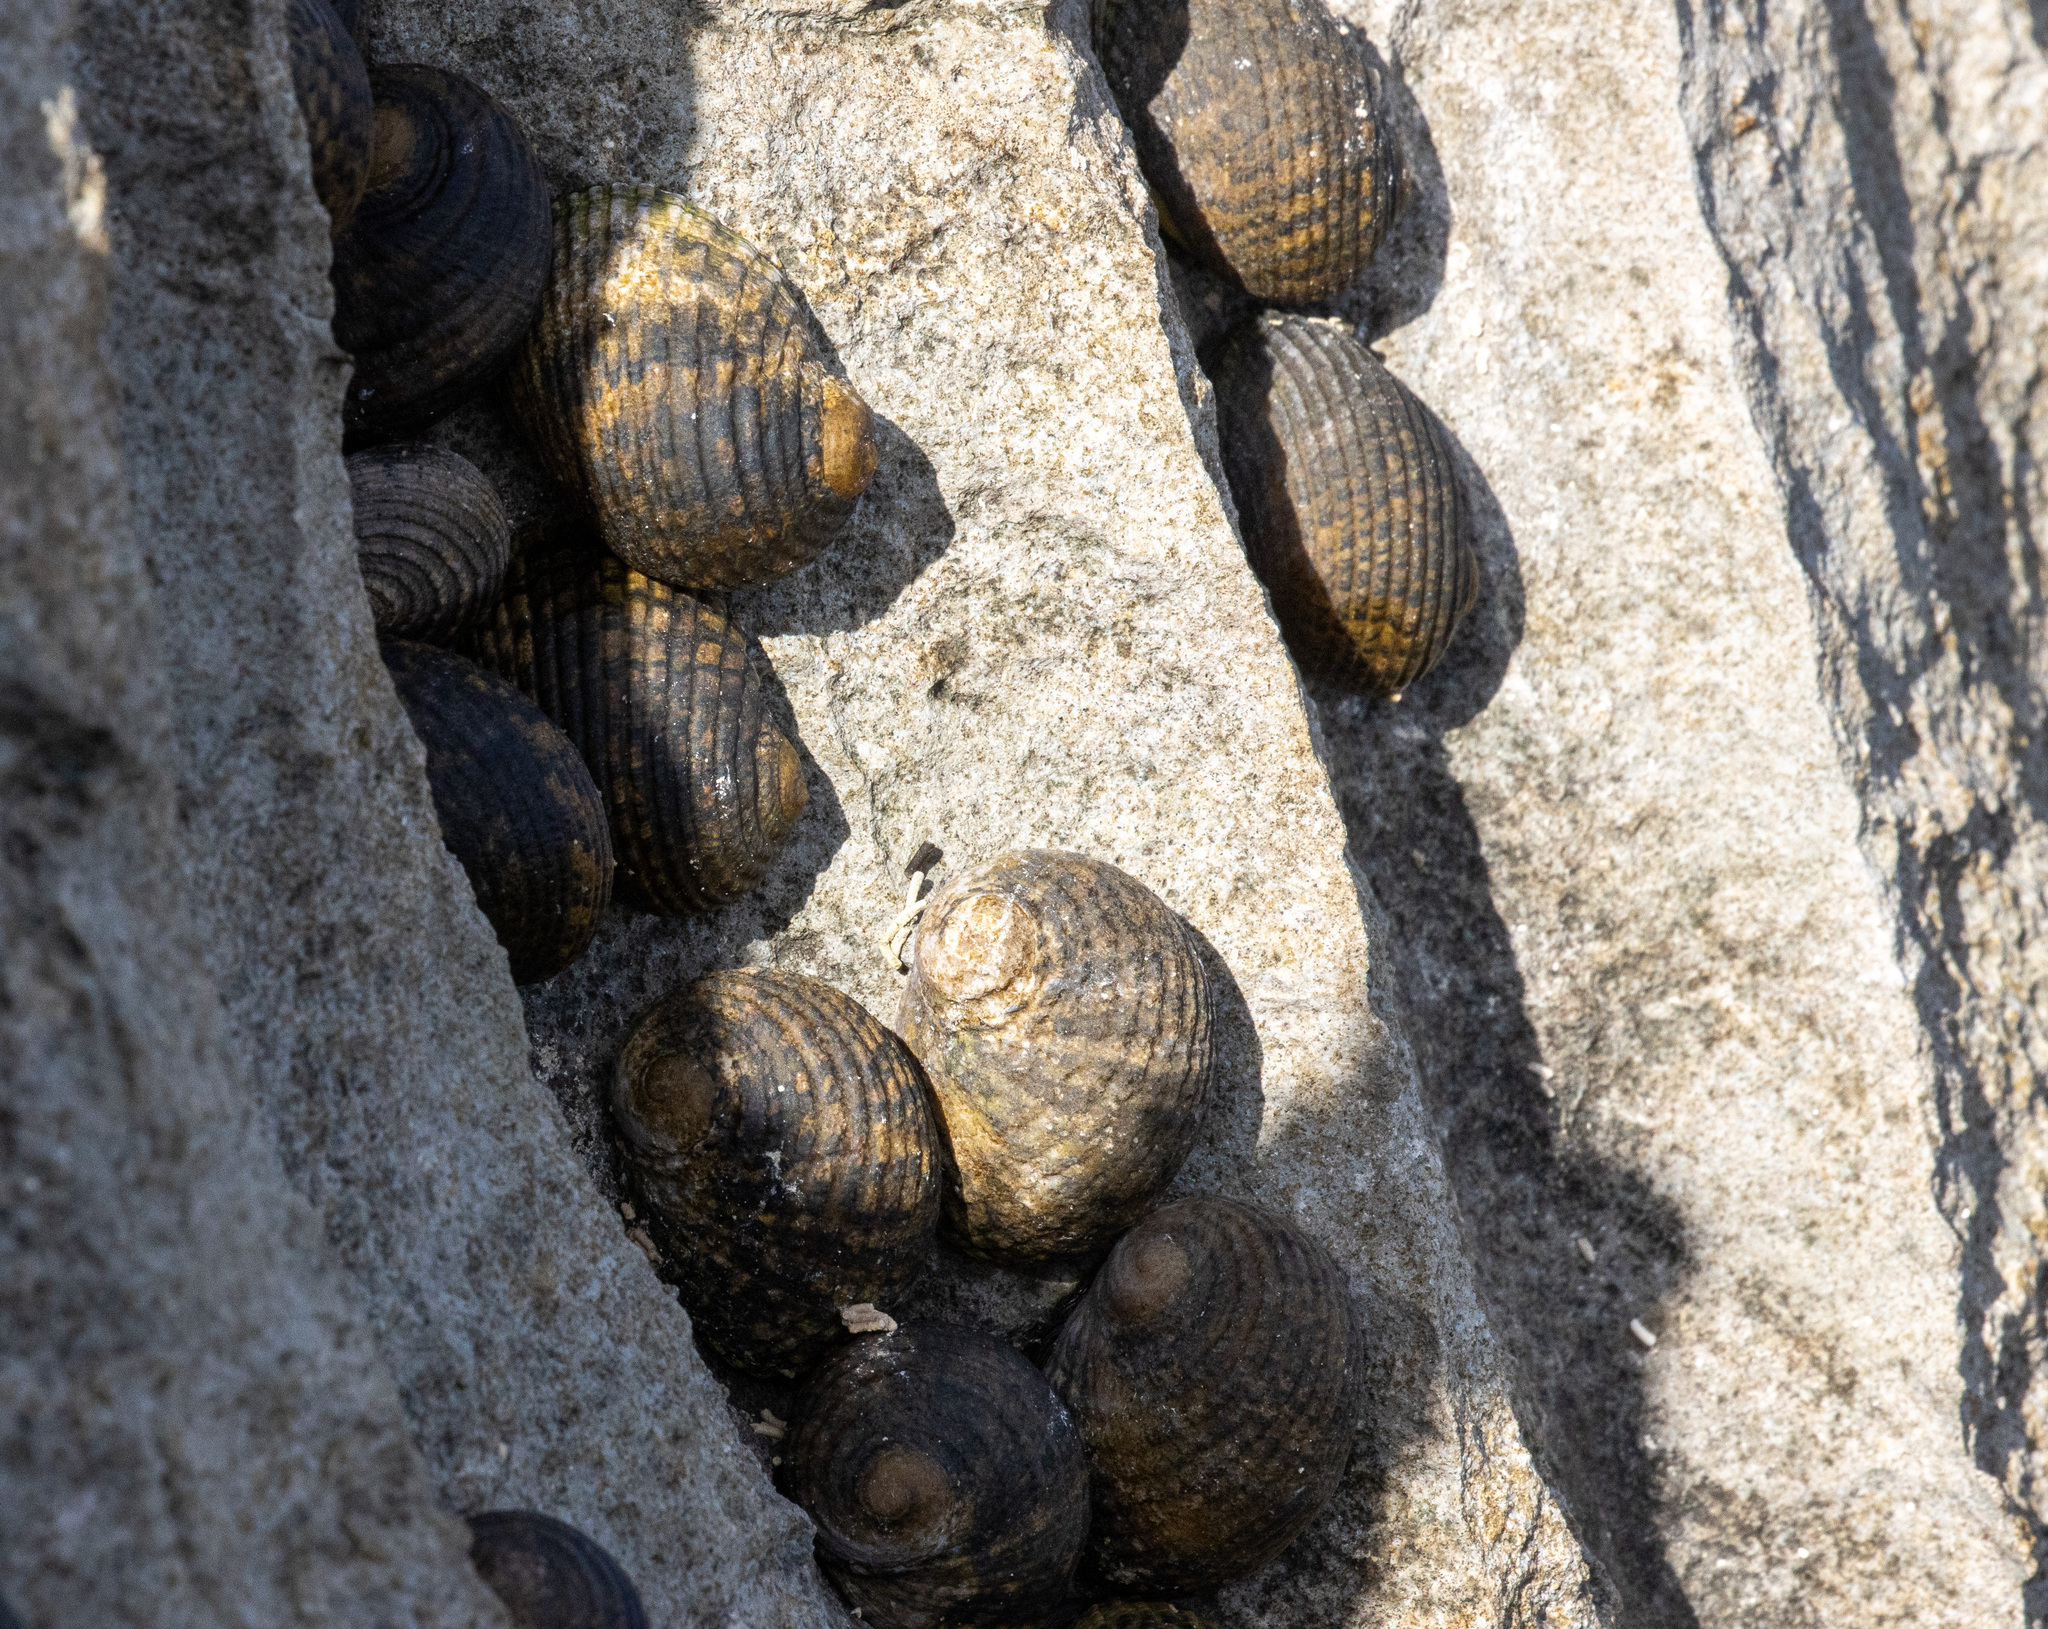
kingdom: Animalia
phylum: Mollusca
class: Gastropoda
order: Cycloneritida
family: Neritidae
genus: Nerita
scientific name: Nerita chlorostoma
